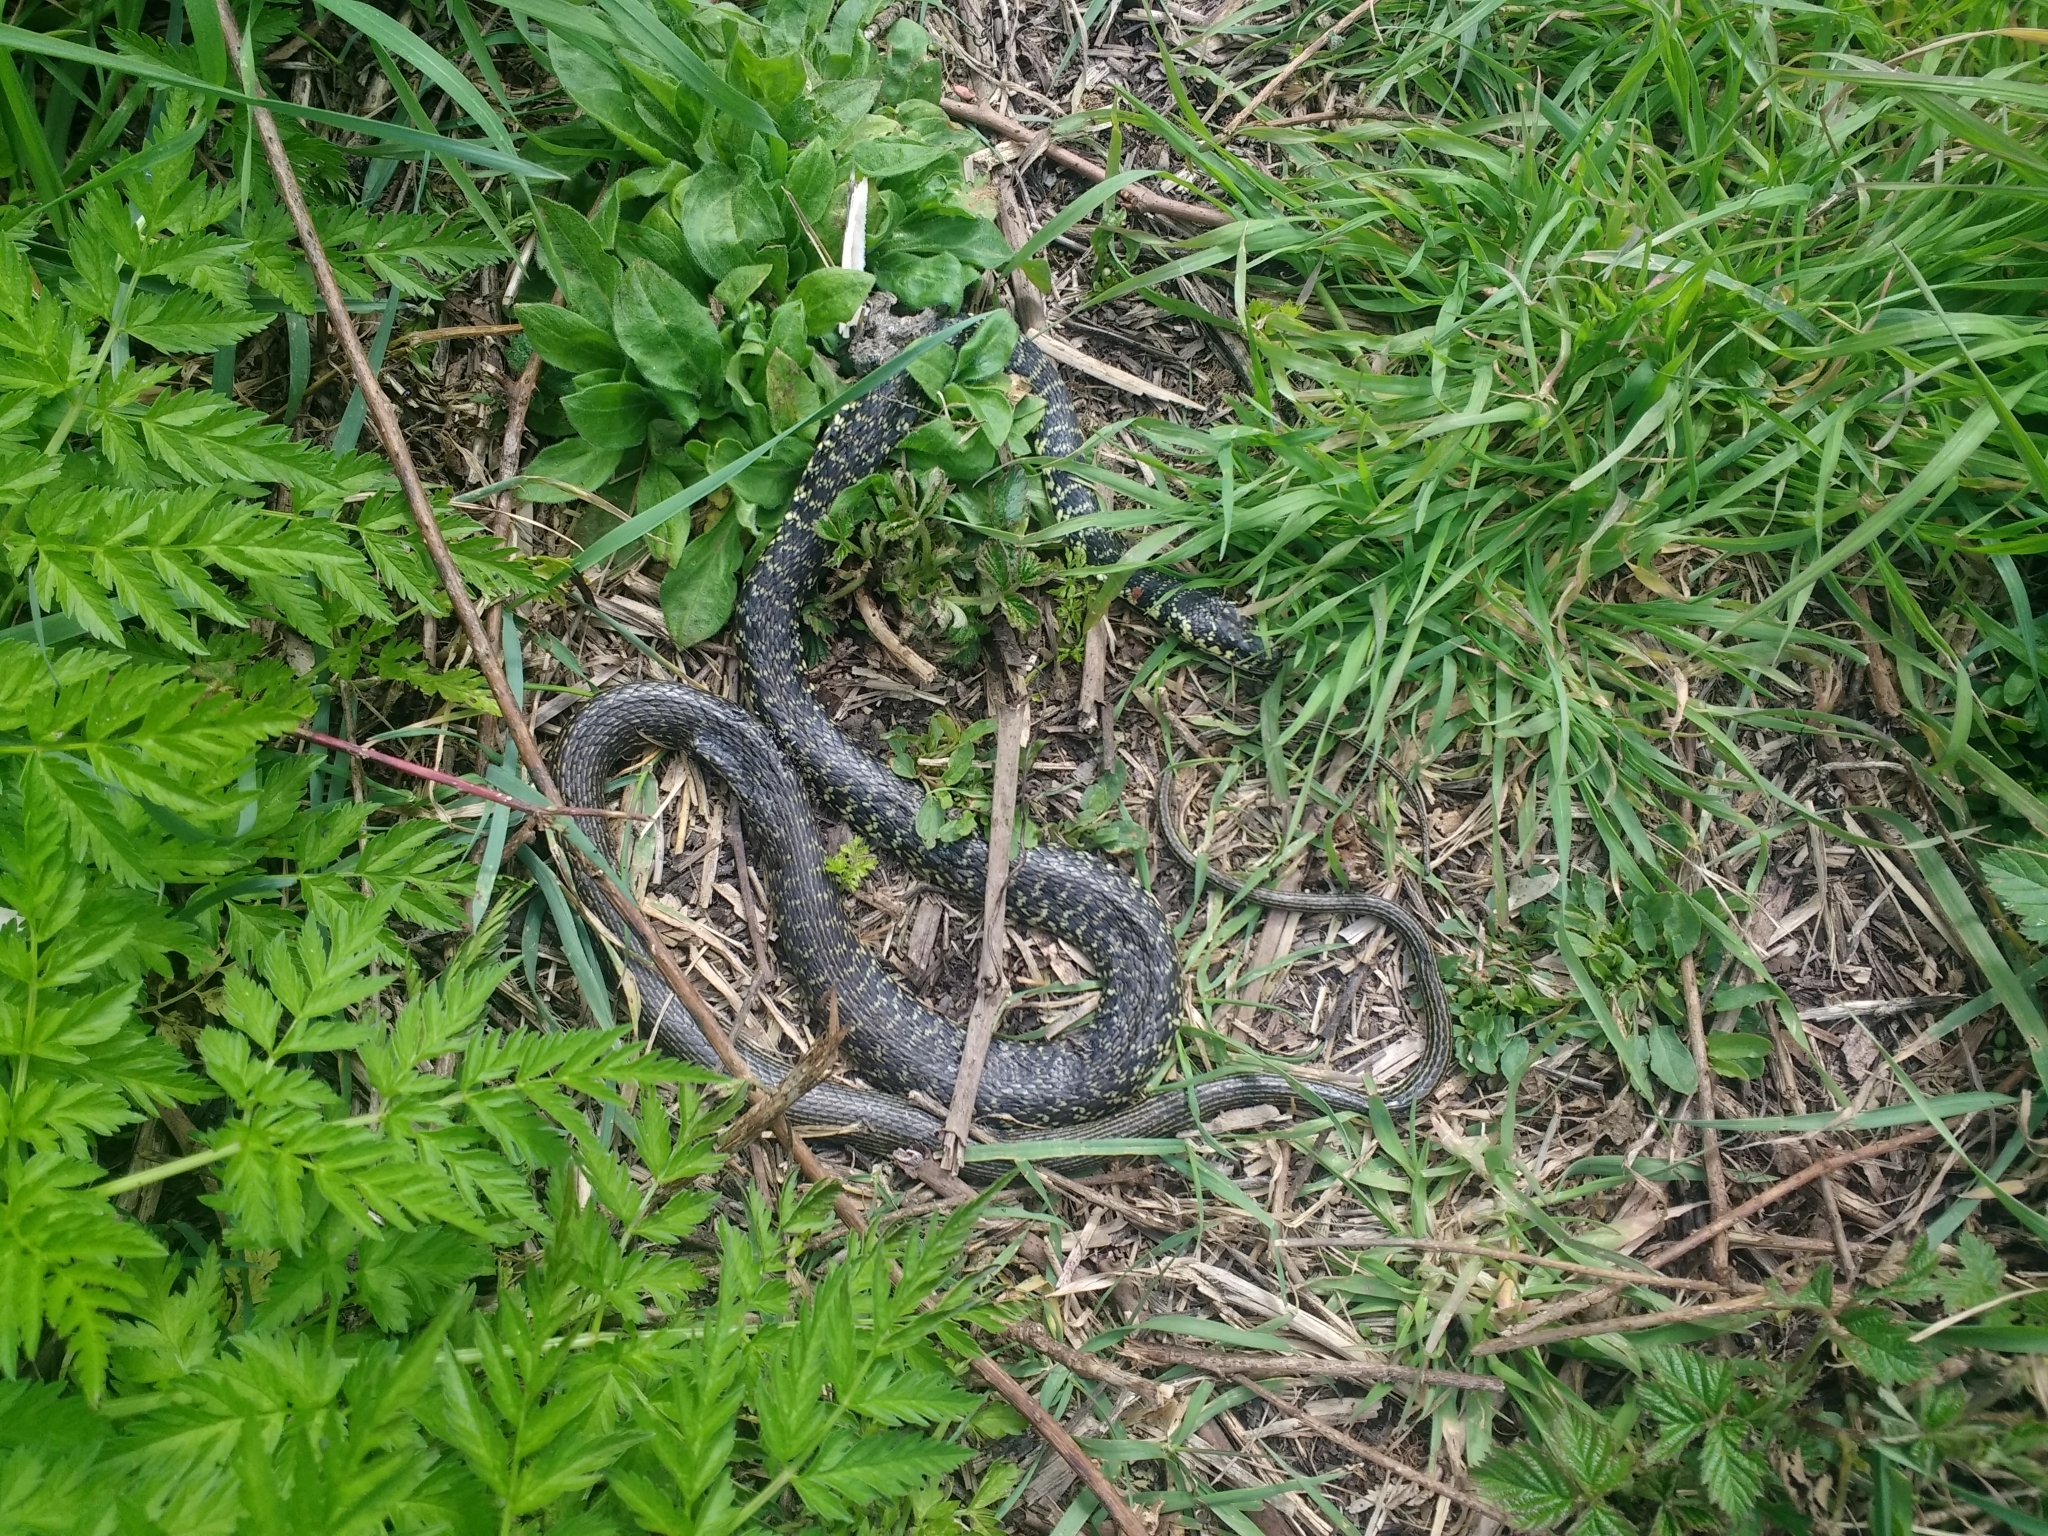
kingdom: Animalia
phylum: Chordata
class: Squamata
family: Colubridae
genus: Hierophis
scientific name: Hierophis viridiflavus
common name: Green whip snake
